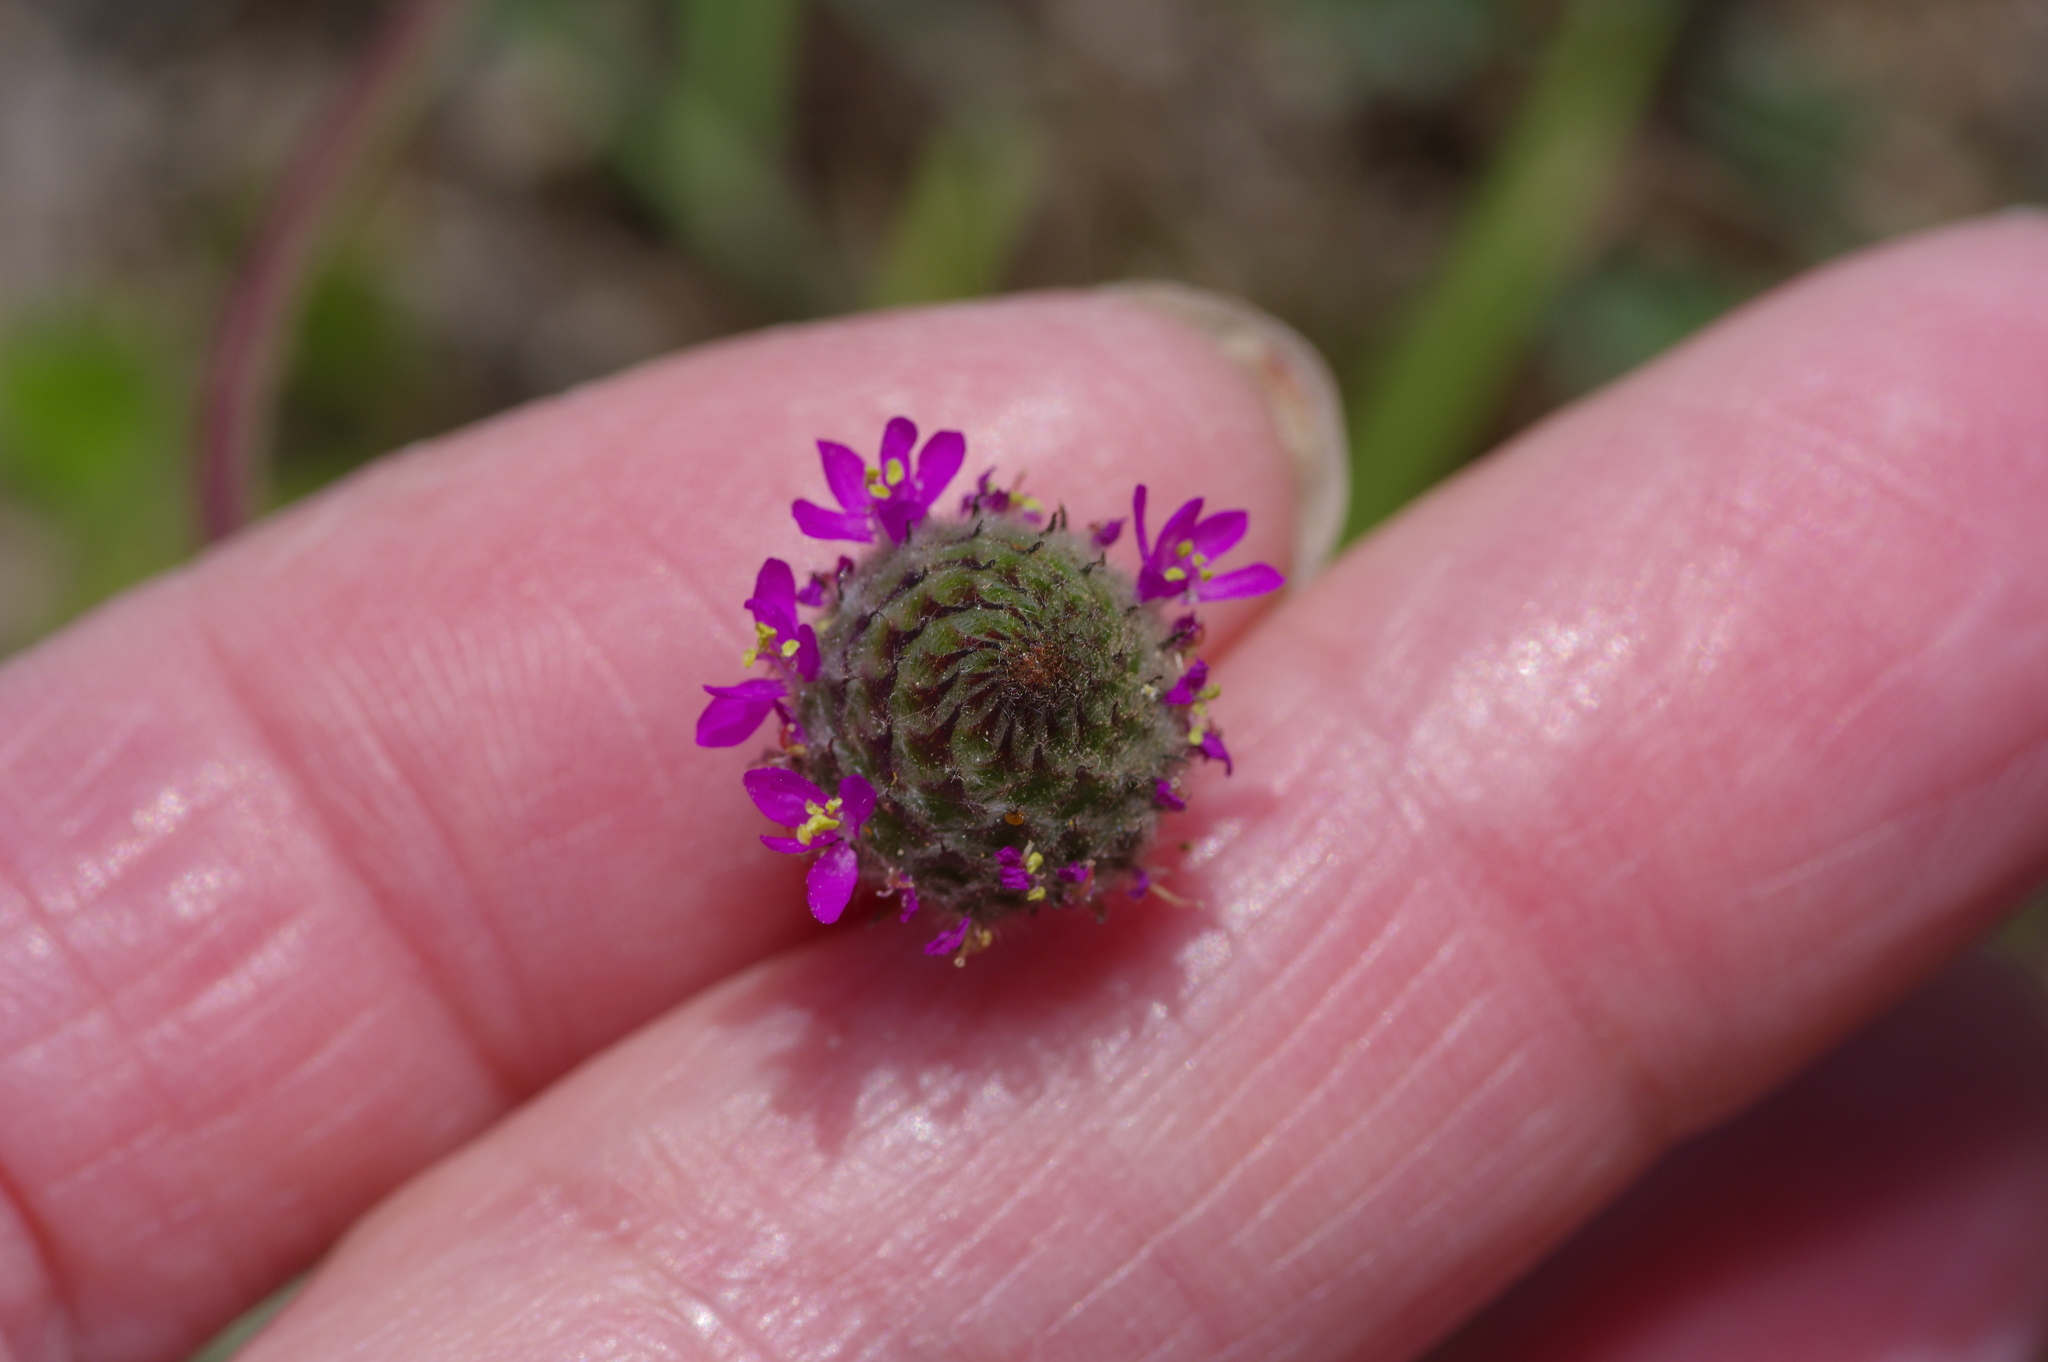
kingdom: Plantae
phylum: Tracheophyta
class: Magnoliopsida
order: Fabales
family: Fabaceae
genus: Dalea
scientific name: Dalea emarginata
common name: Wedgeleaf prairie clover
